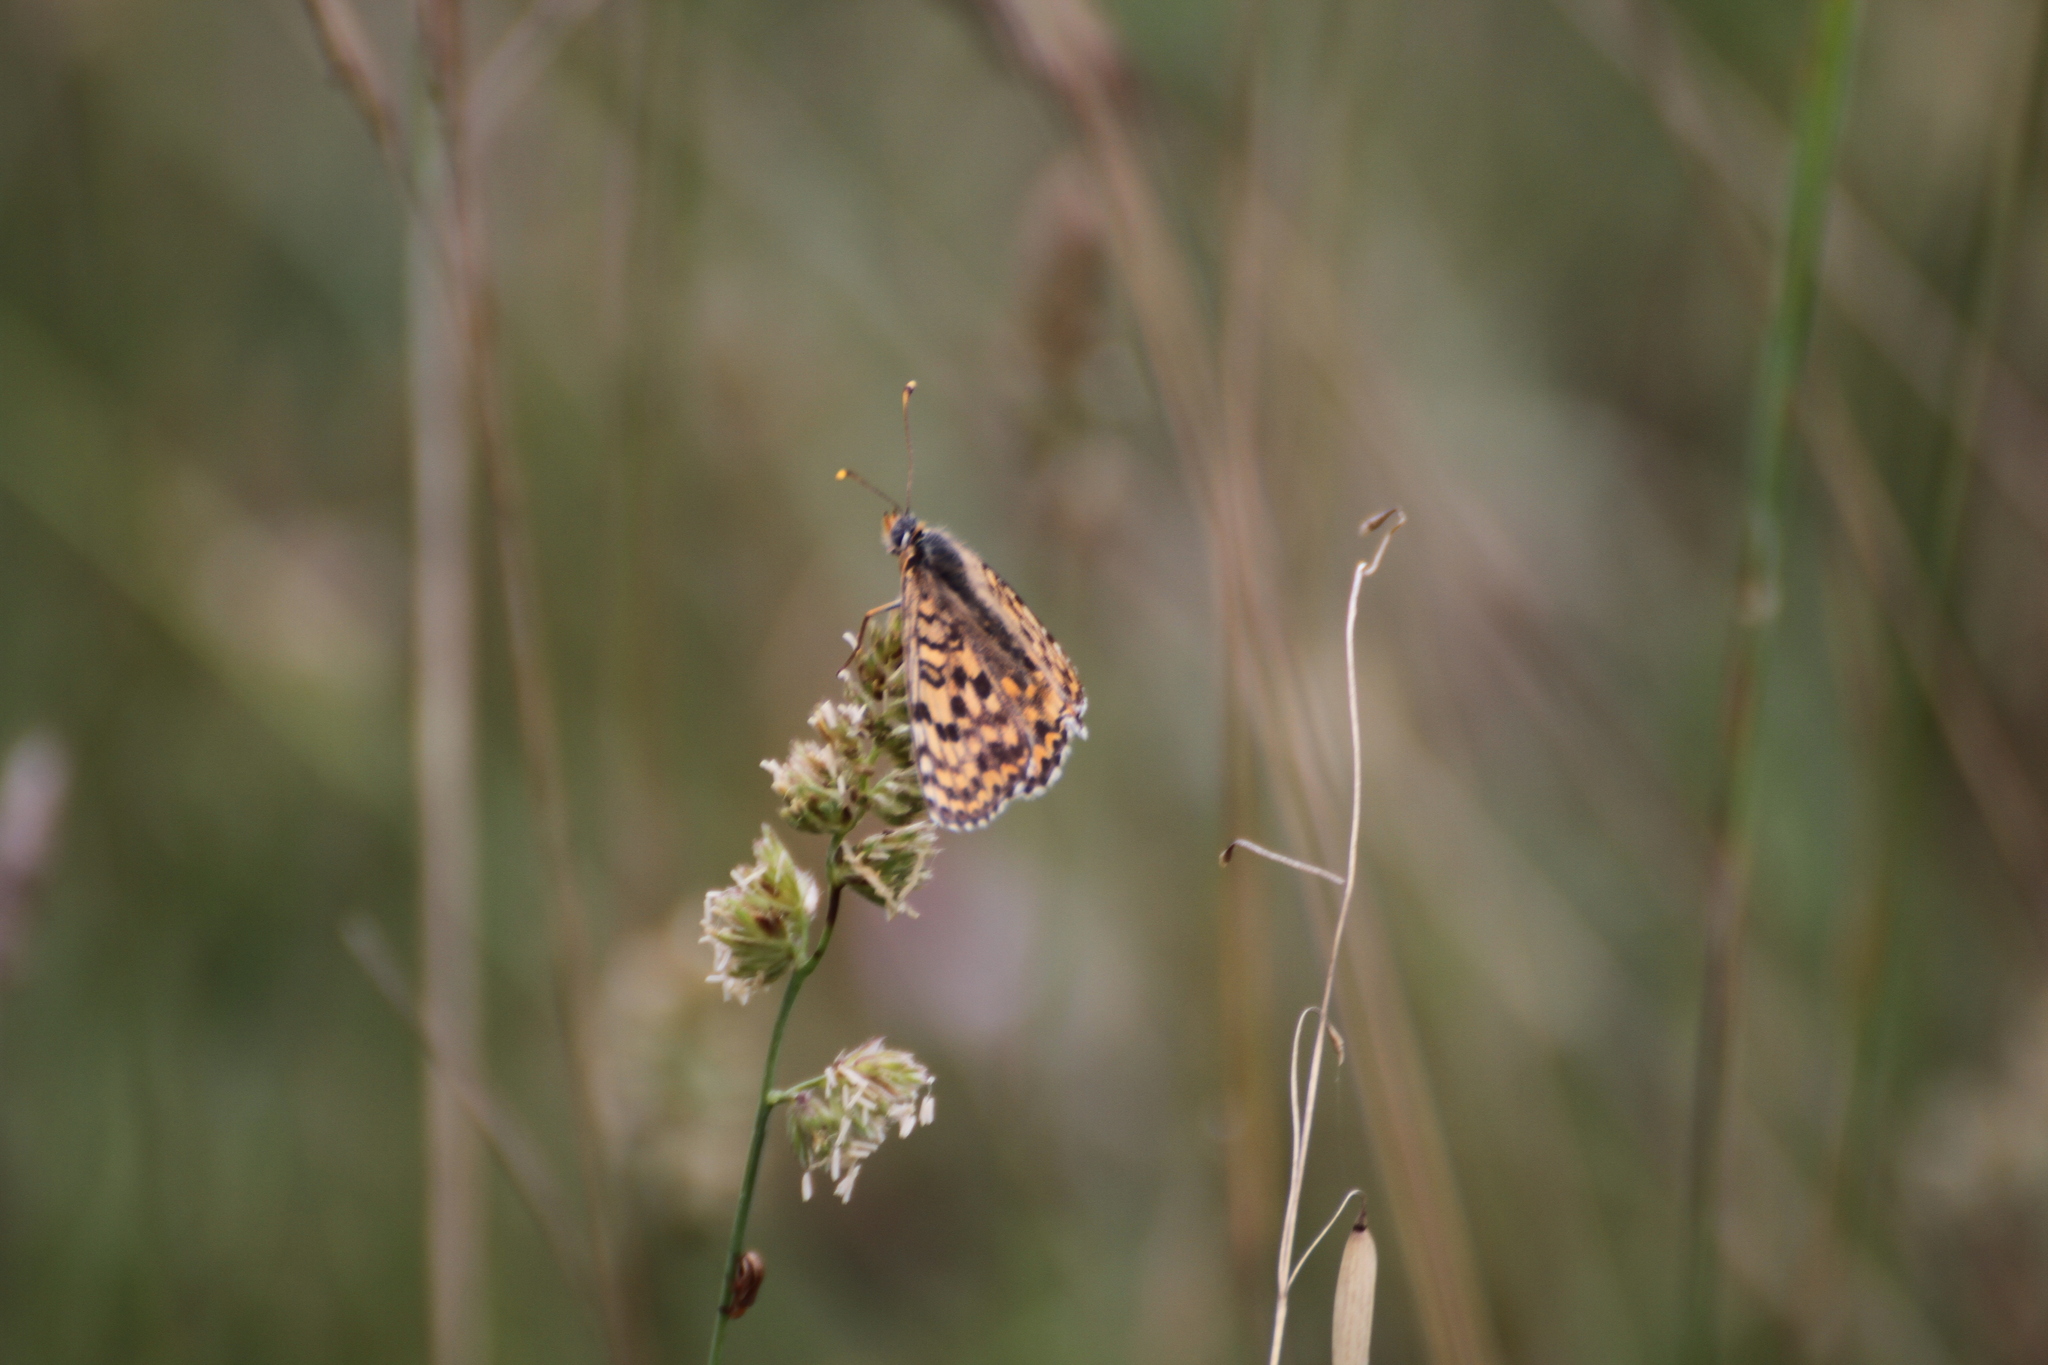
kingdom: Animalia
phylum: Arthropoda
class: Insecta
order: Lepidoptera
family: Nymphalidae
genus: Melitaea
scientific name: Melitaea didyma
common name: Spotted fritillary
